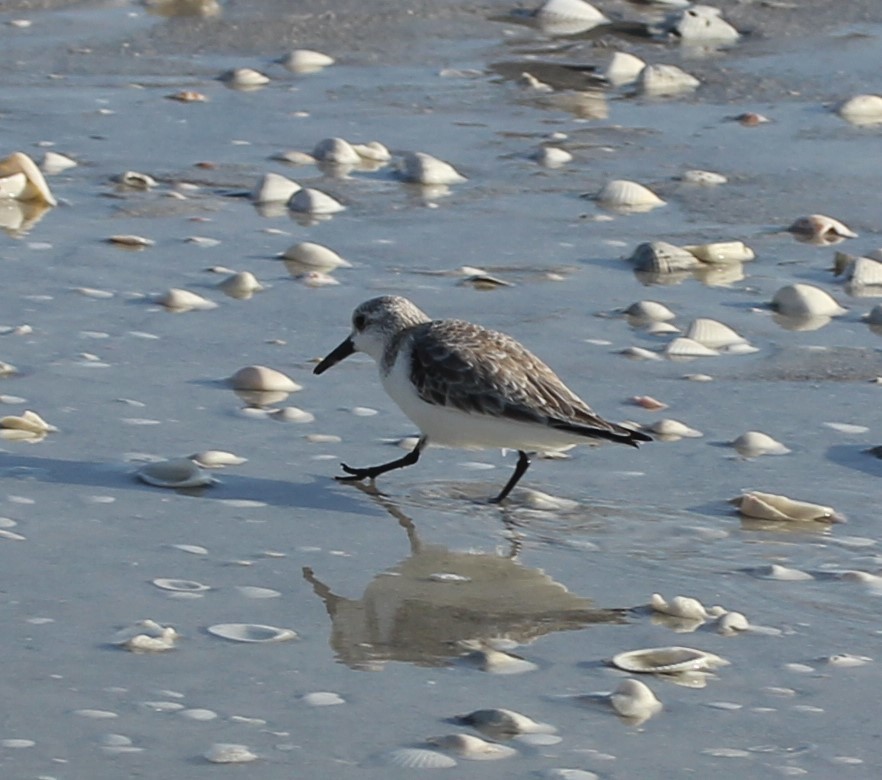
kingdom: Animalia
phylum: Chordata
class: Aves
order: Charadriiformes
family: Scolopacidae
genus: Calidris
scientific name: Calidris alba
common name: Sanderling
